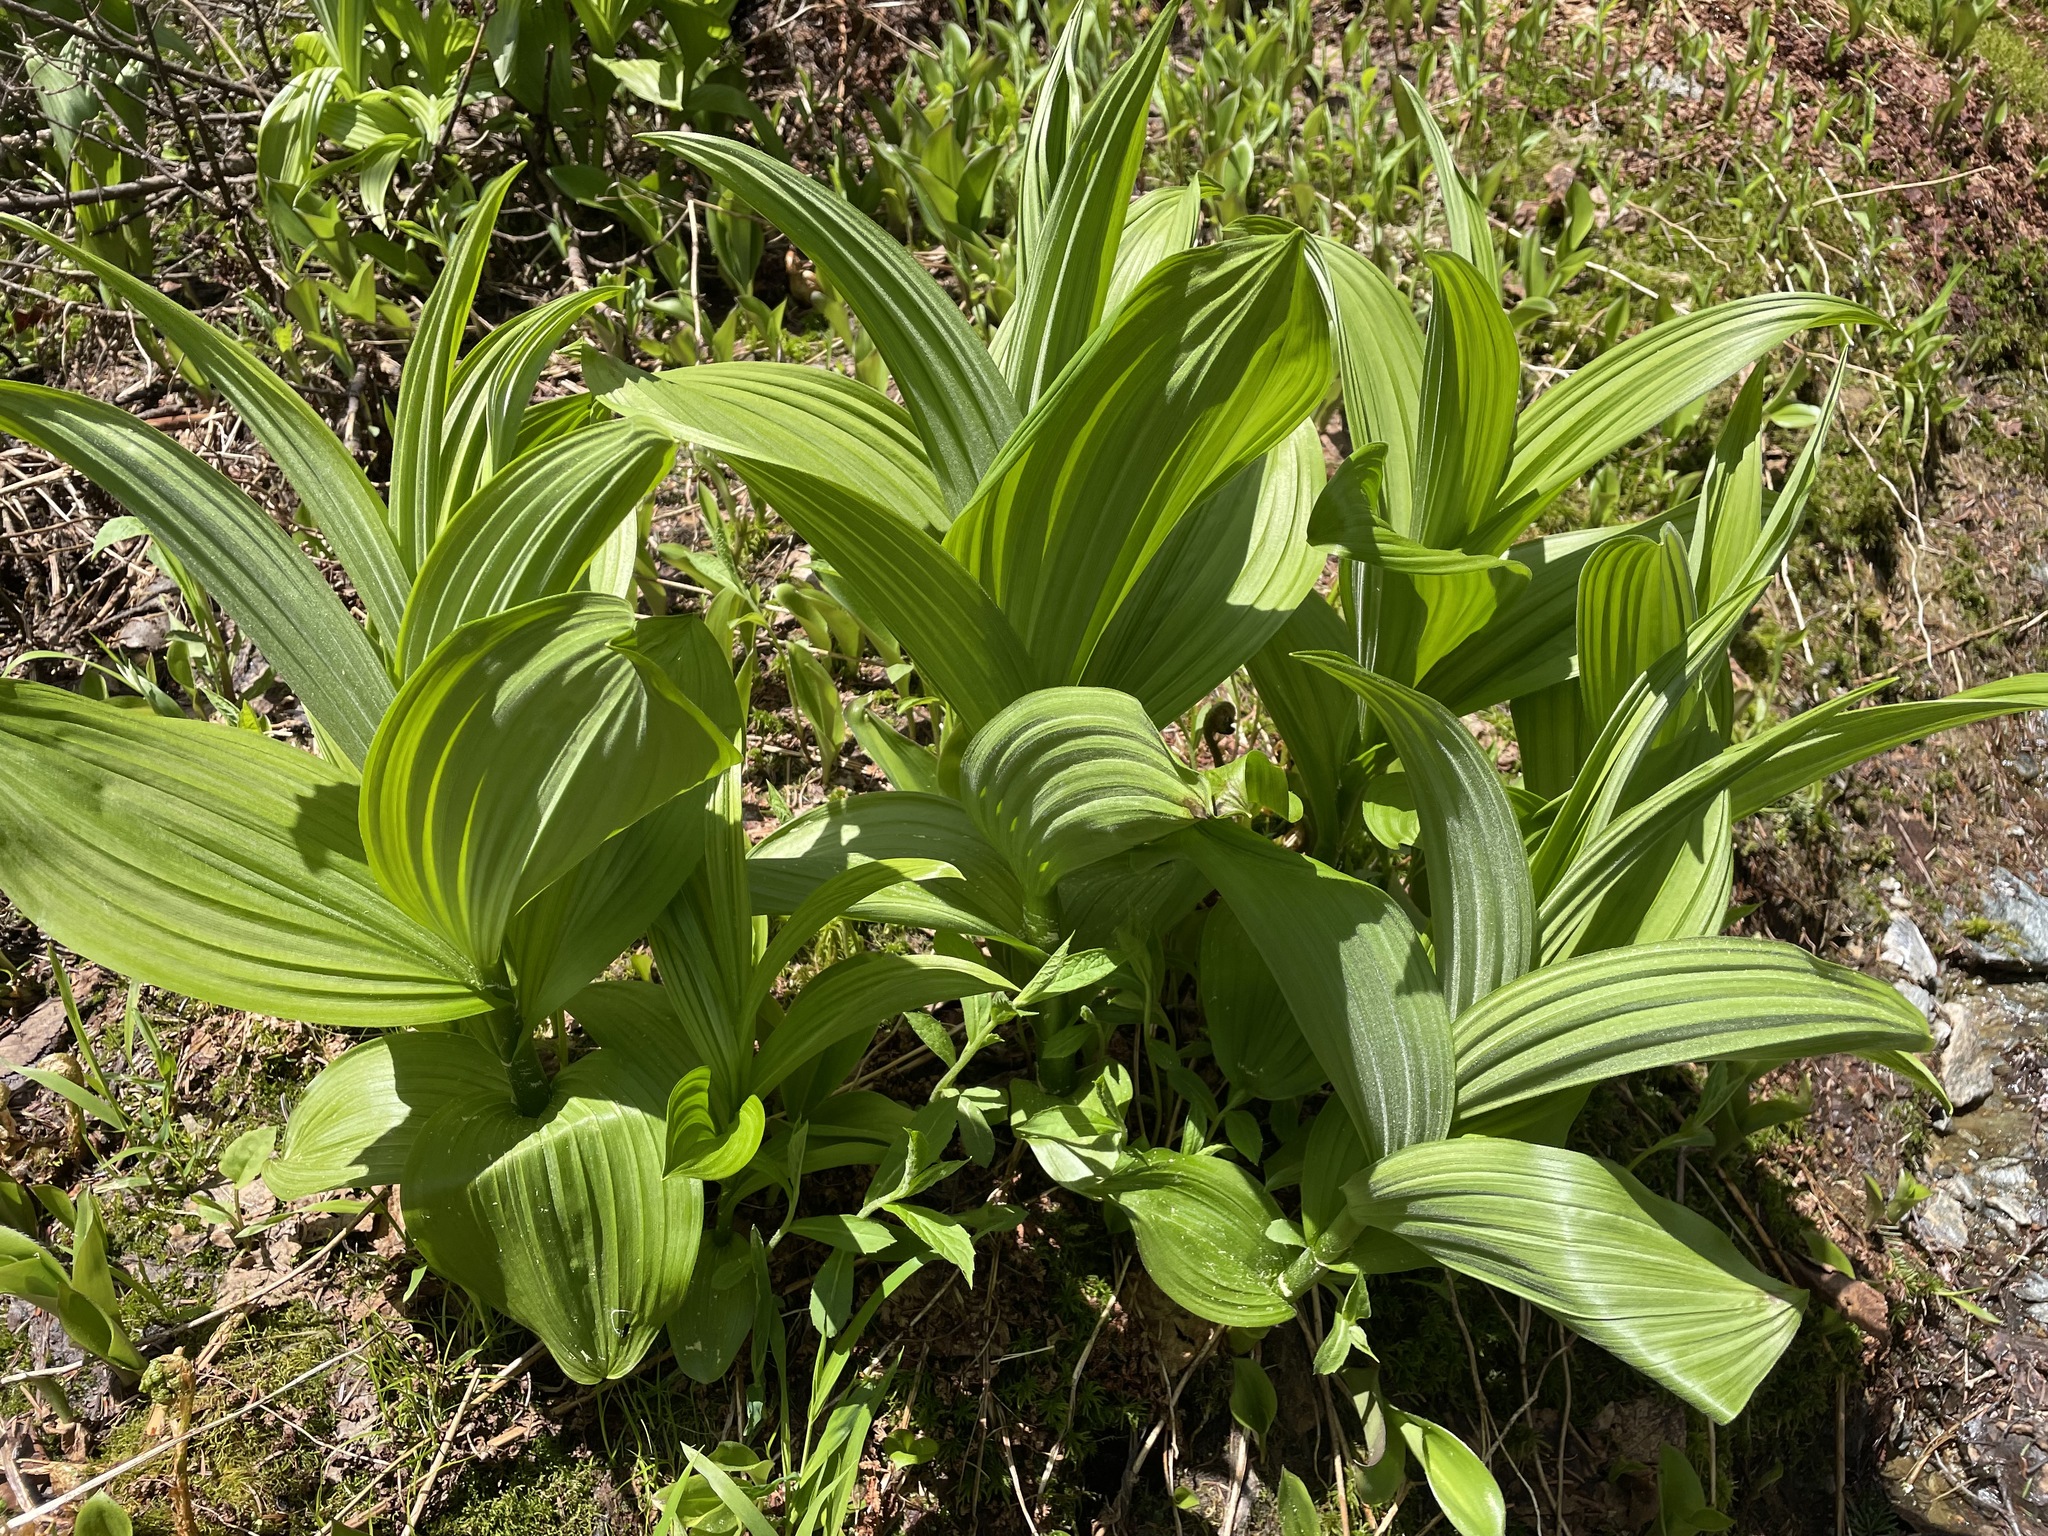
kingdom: Plantae
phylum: Tracheophyta
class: Liliopsida
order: Liliales
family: Melanthiaceae
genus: Veratrum
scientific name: Veratrum viride
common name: American false hellebore
